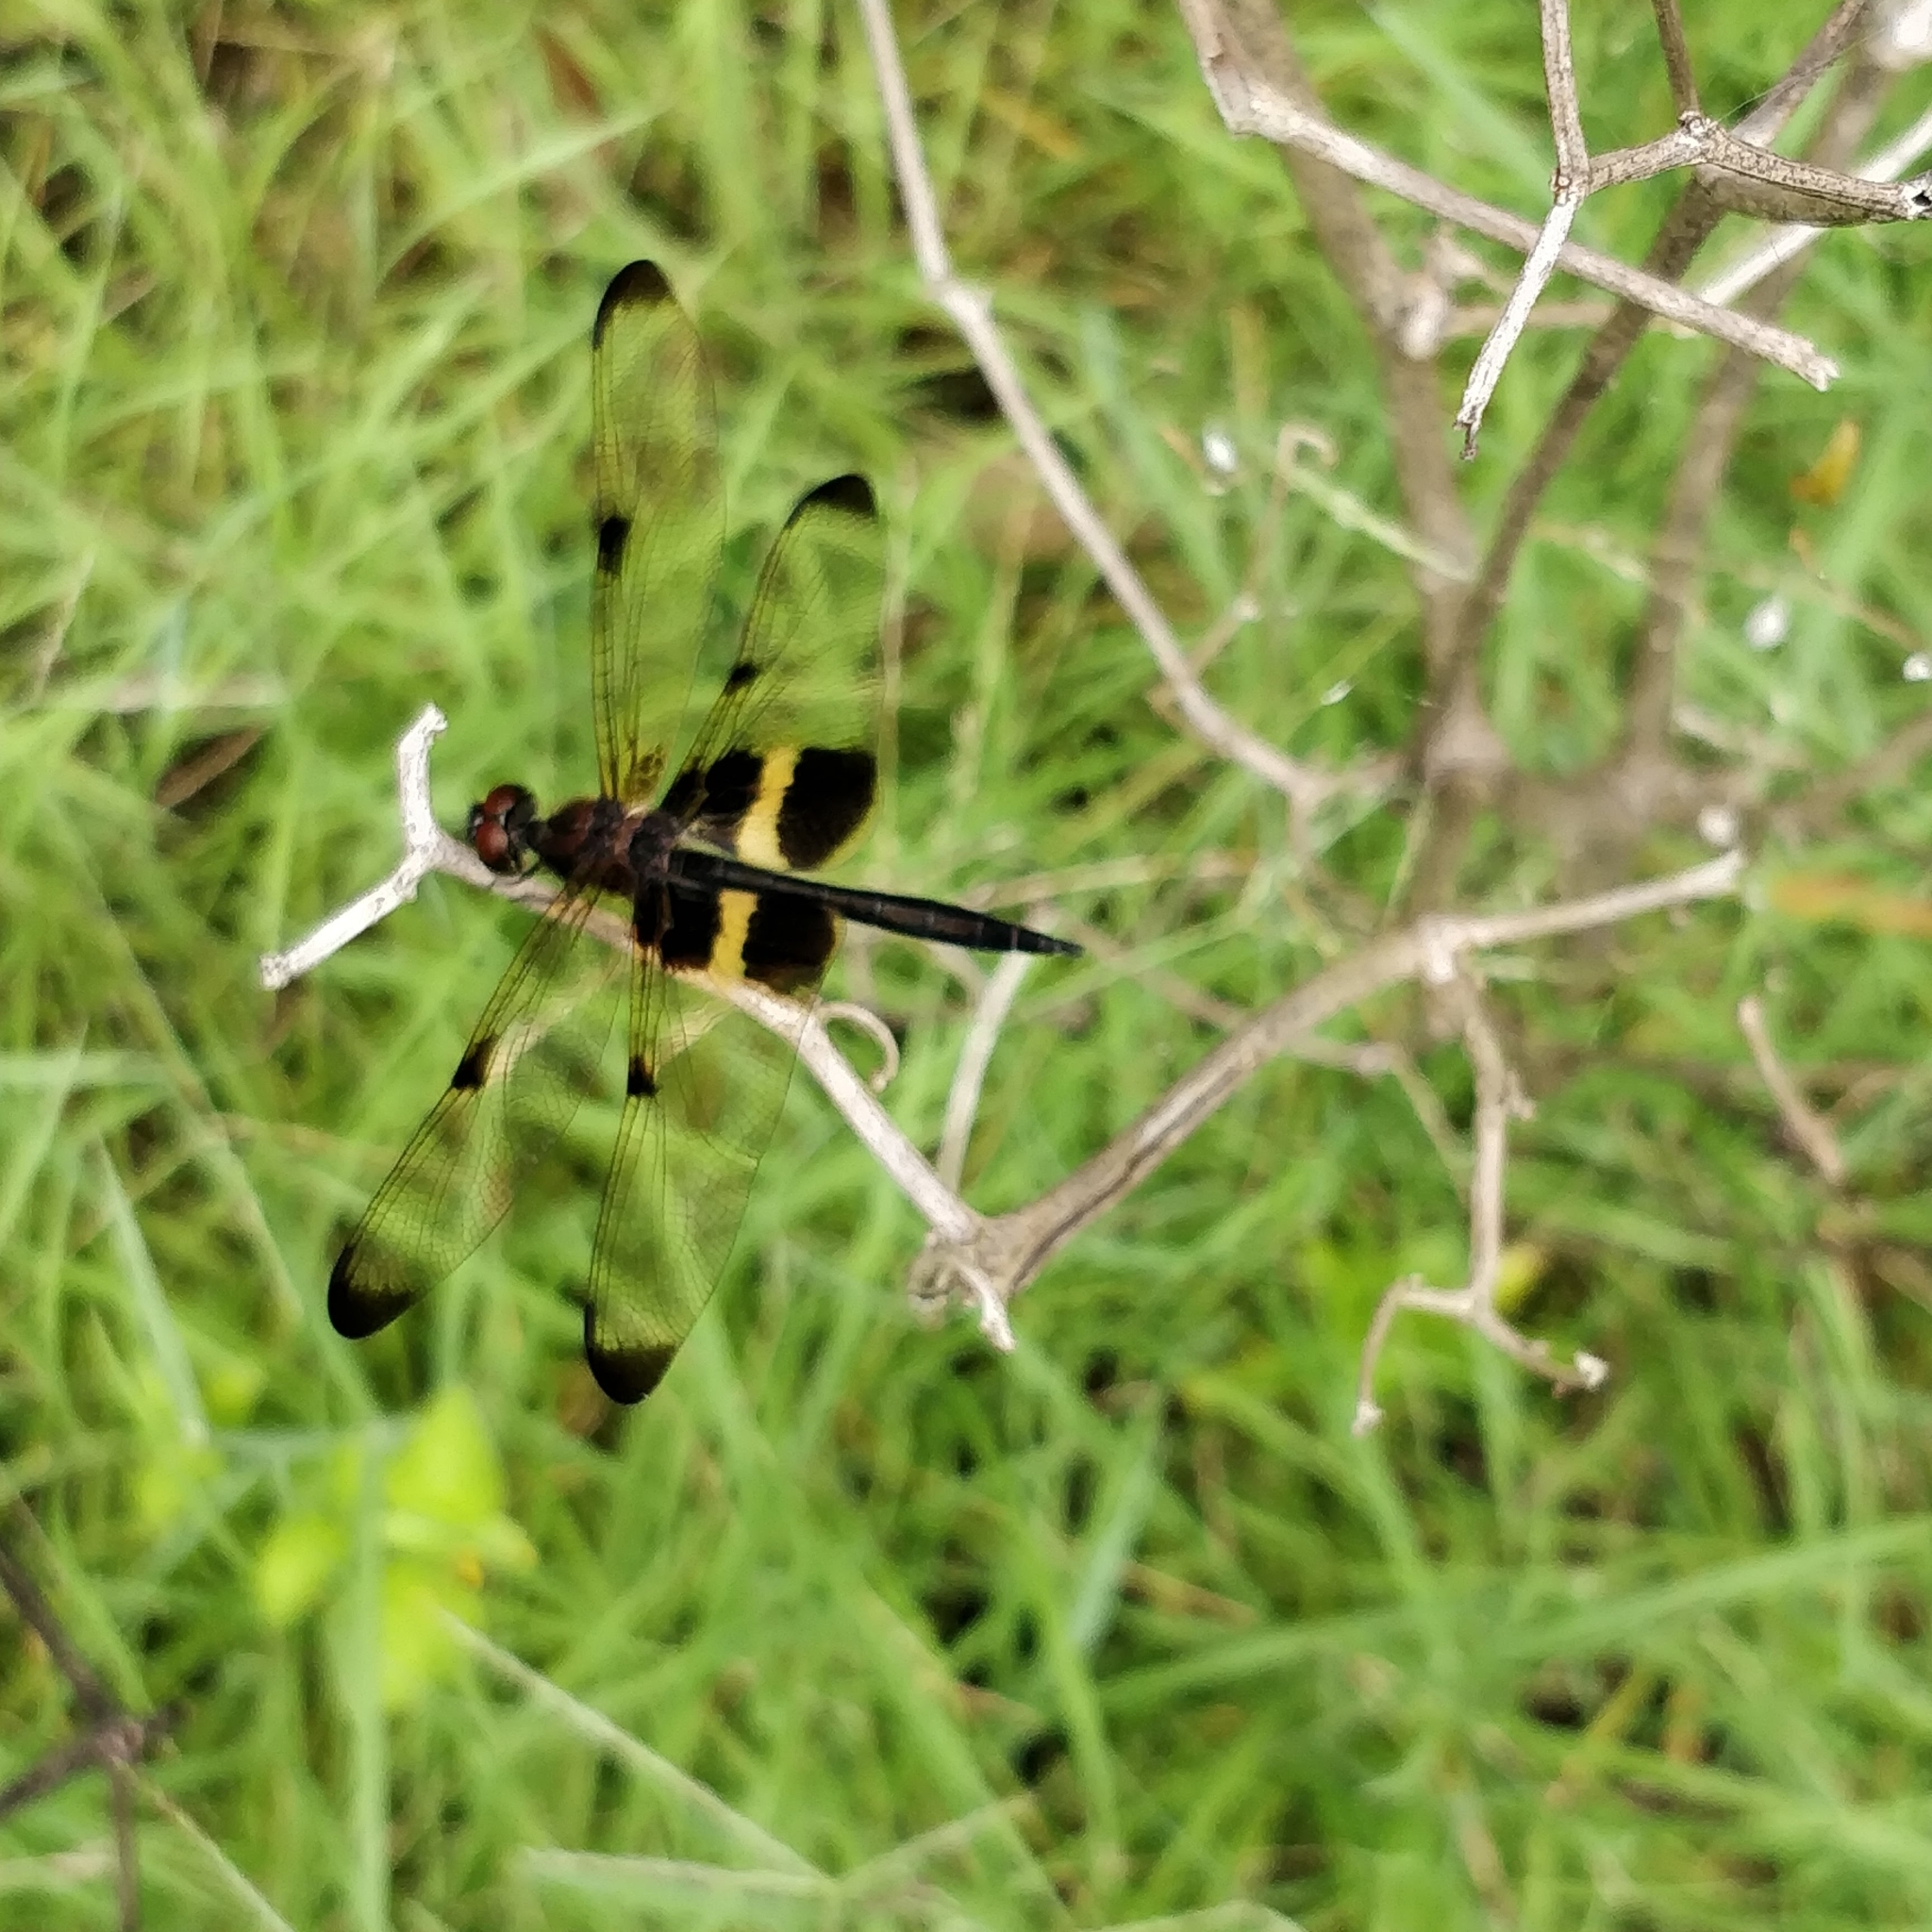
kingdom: Animalia
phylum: Arthropoda
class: Insecta
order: Odonata
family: Libellulidae
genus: Rhyothemis
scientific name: Rhyothemis phyllis
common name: Yellow-barred flutterer
